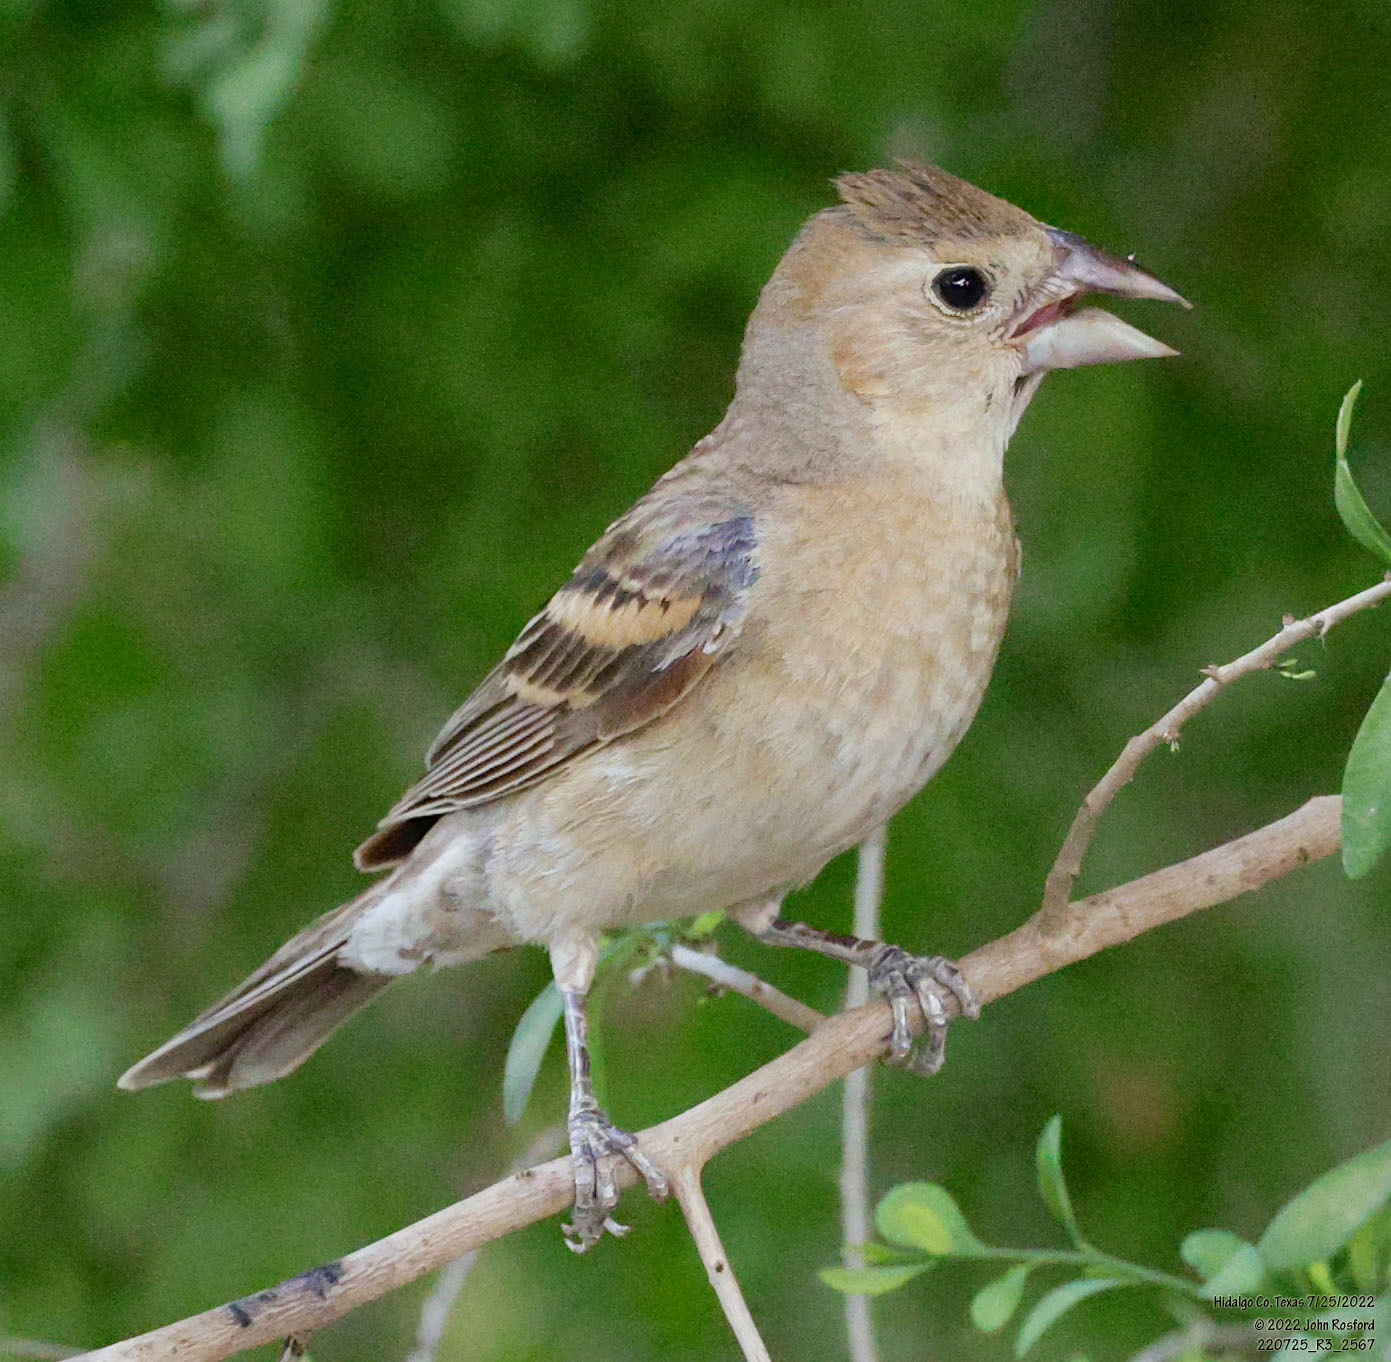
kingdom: Animalia
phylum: Chordata
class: Aves
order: Passeriformes
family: Cardinalidae
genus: Passerina
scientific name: Passerina caerulea
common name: Blue grosbeak
